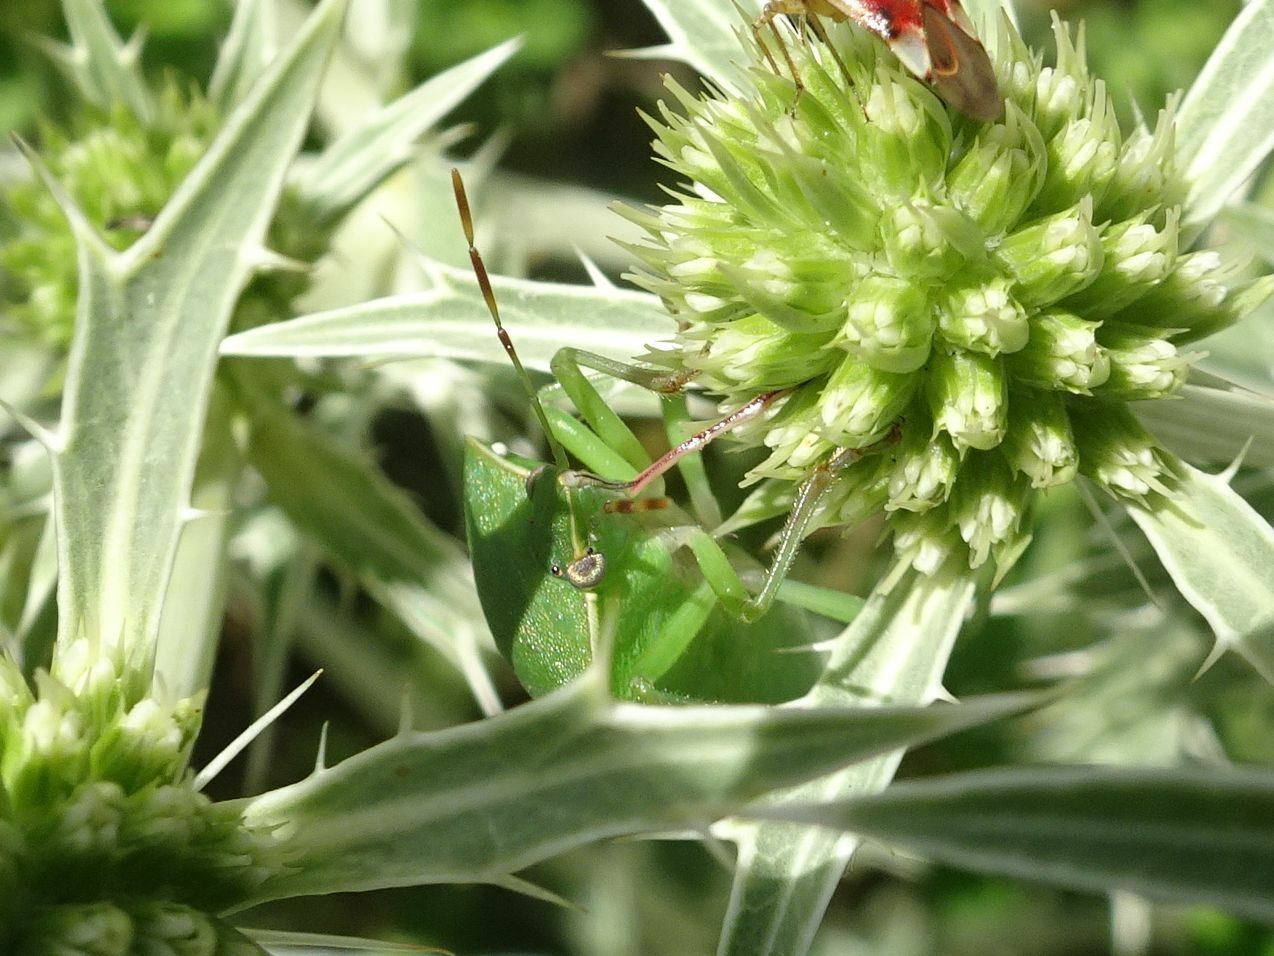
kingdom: Animalia
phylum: Arthropoda
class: Insecta
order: Hemiptera
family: Pentatomidae
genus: Nezara
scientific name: Nezara viridula
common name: Southern green stink bug
